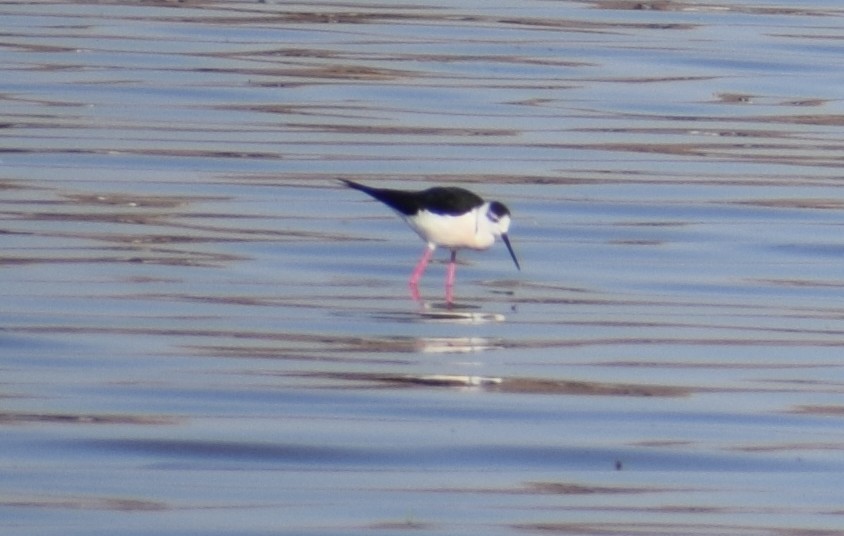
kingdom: Animalia
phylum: Chordata
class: Aves
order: Charadriiformes
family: Recurvirostridae
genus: Himantopus
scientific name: Himantopus himantopus
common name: Black-winged stilt
